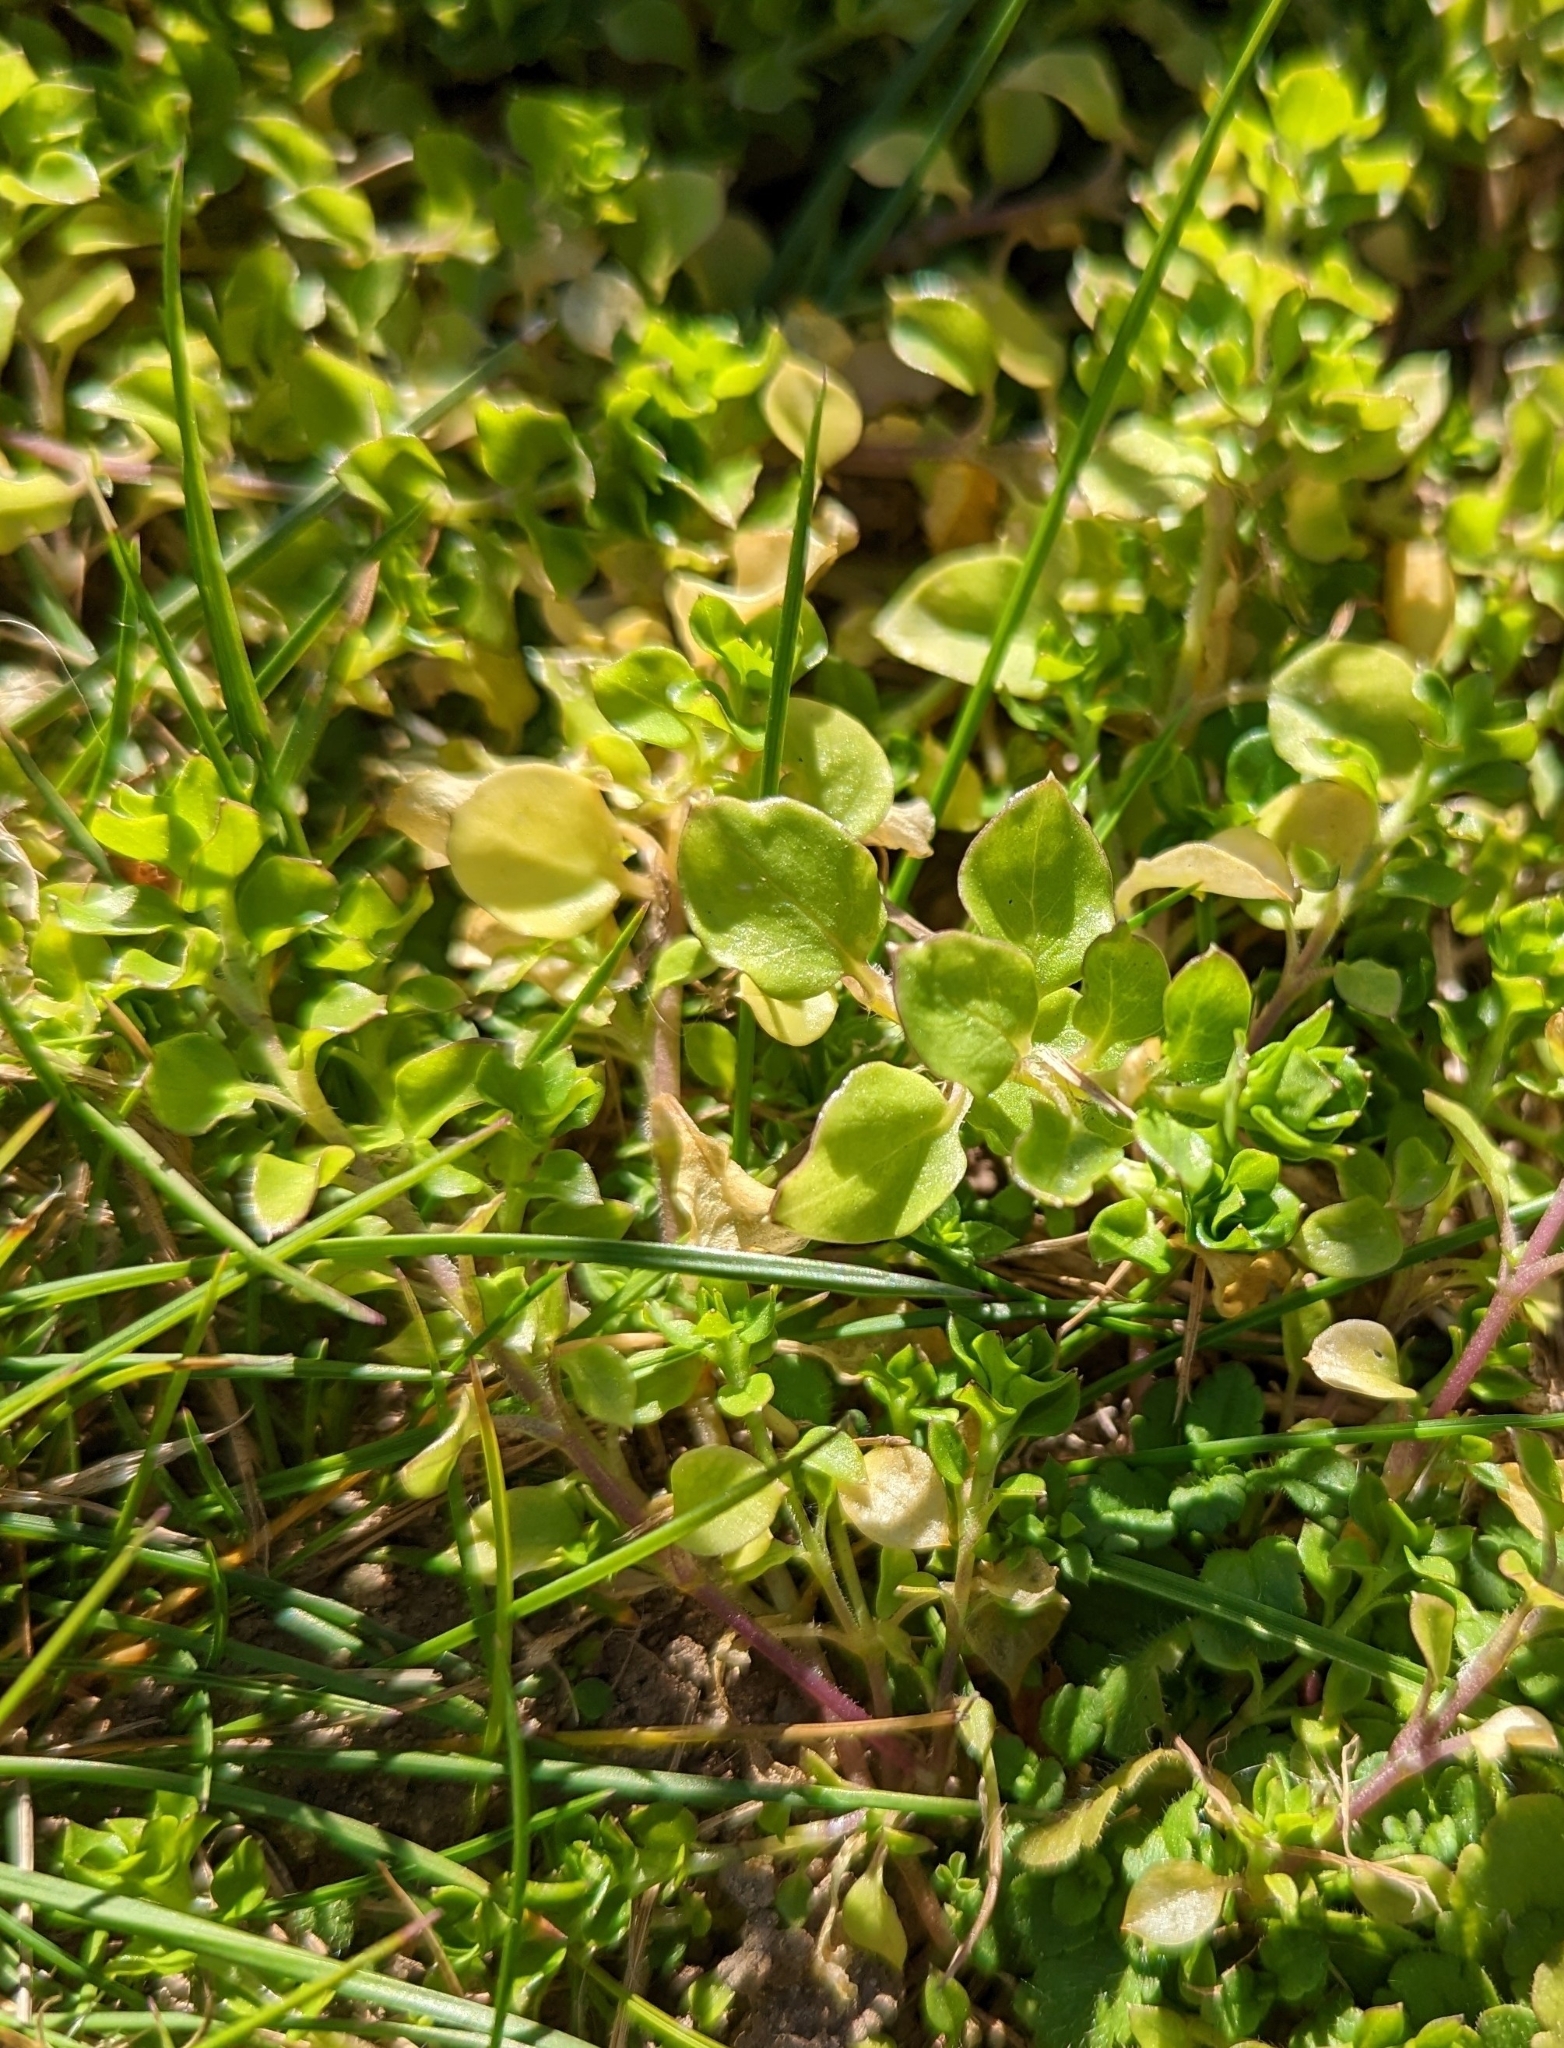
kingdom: Plantae
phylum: Tracheophyta
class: Magnoliopsida
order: Caryophyllales
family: Caryophyllaceae
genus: Stellaria
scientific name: Stellaria media
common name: Common chickweed
